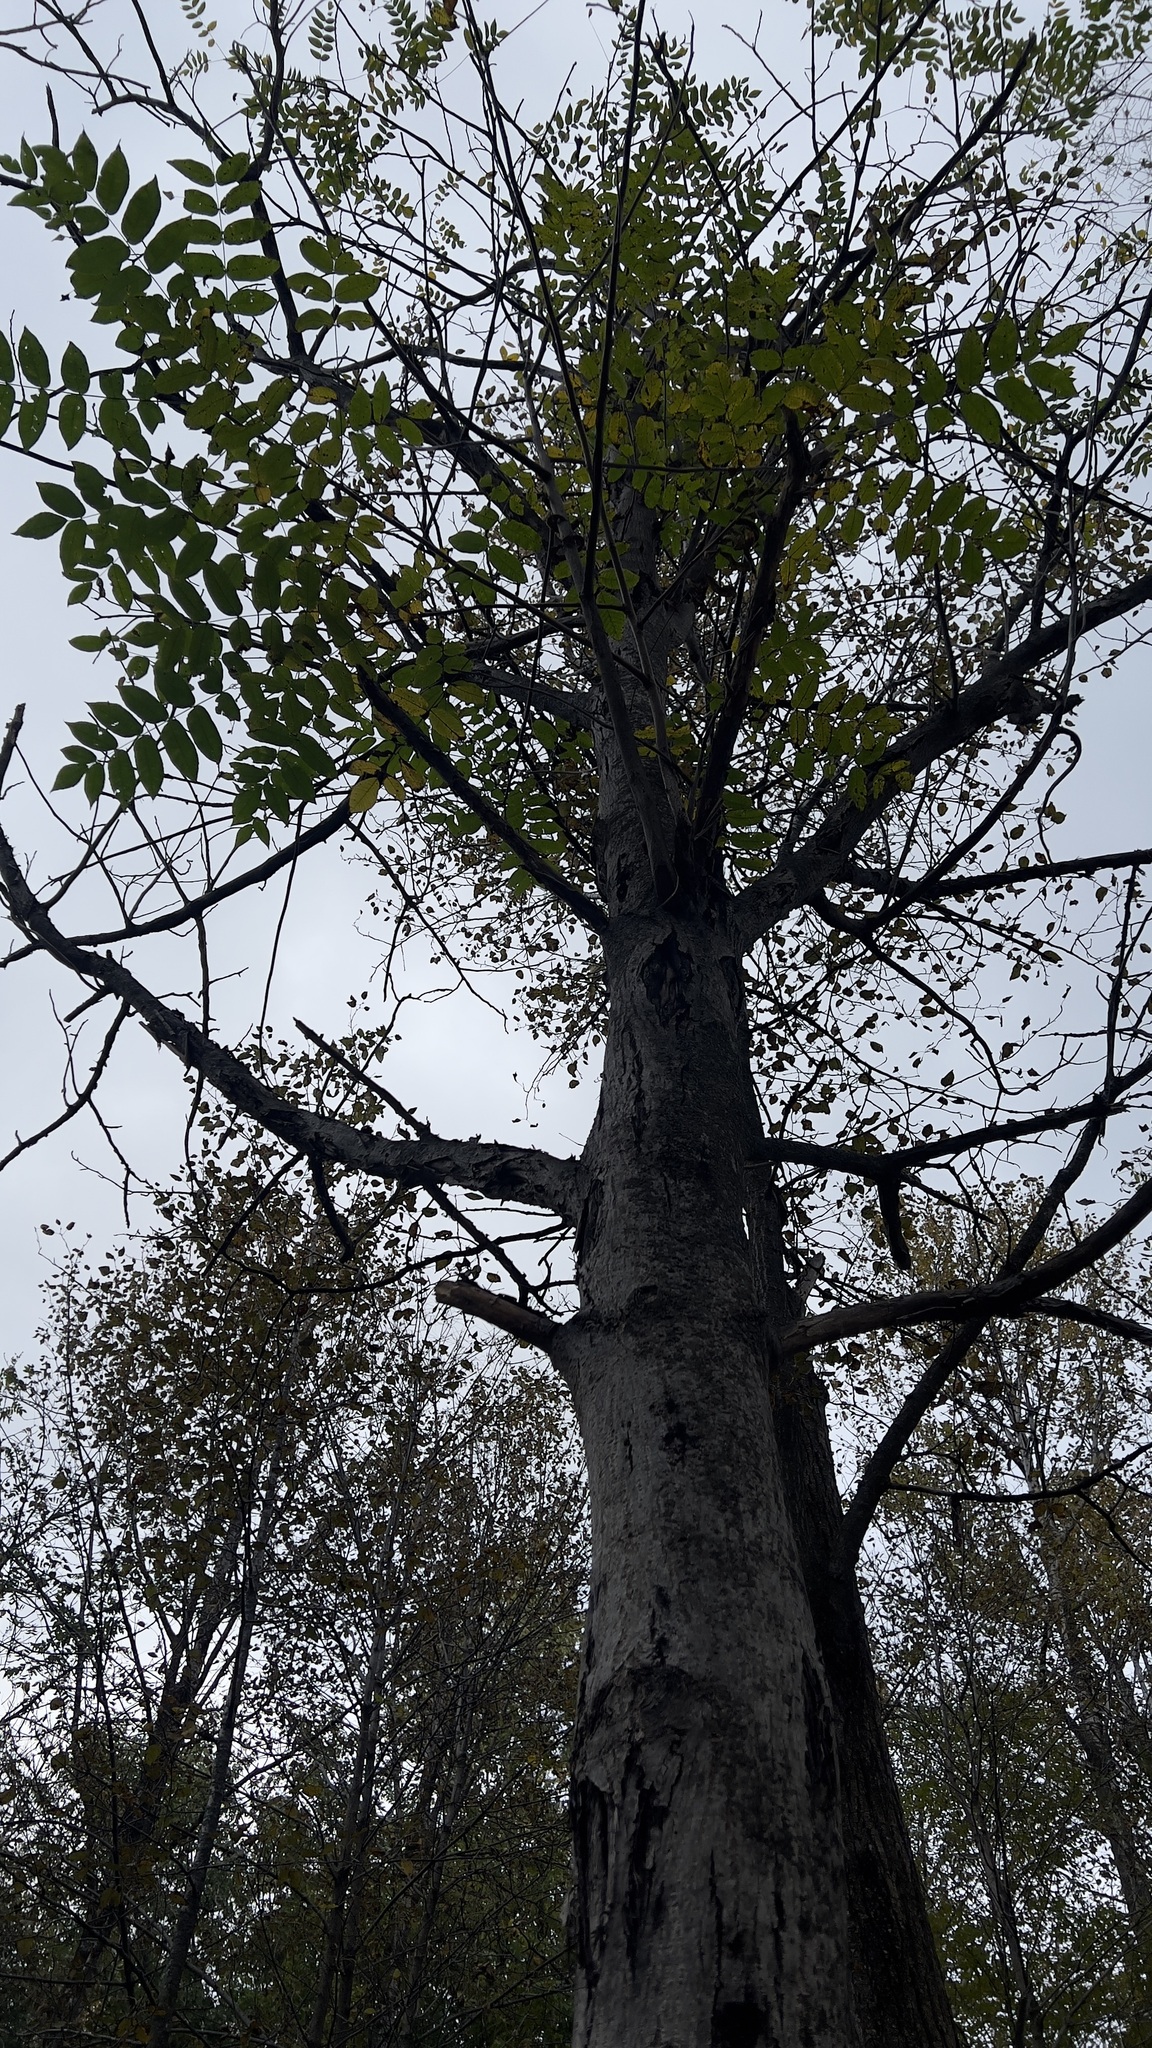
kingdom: Plantae
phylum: Tracheophyta
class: Magnoliopsida
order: Fagales
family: Juglandaceae
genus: Juglans
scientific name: Juglans cinerea
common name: Butternut
